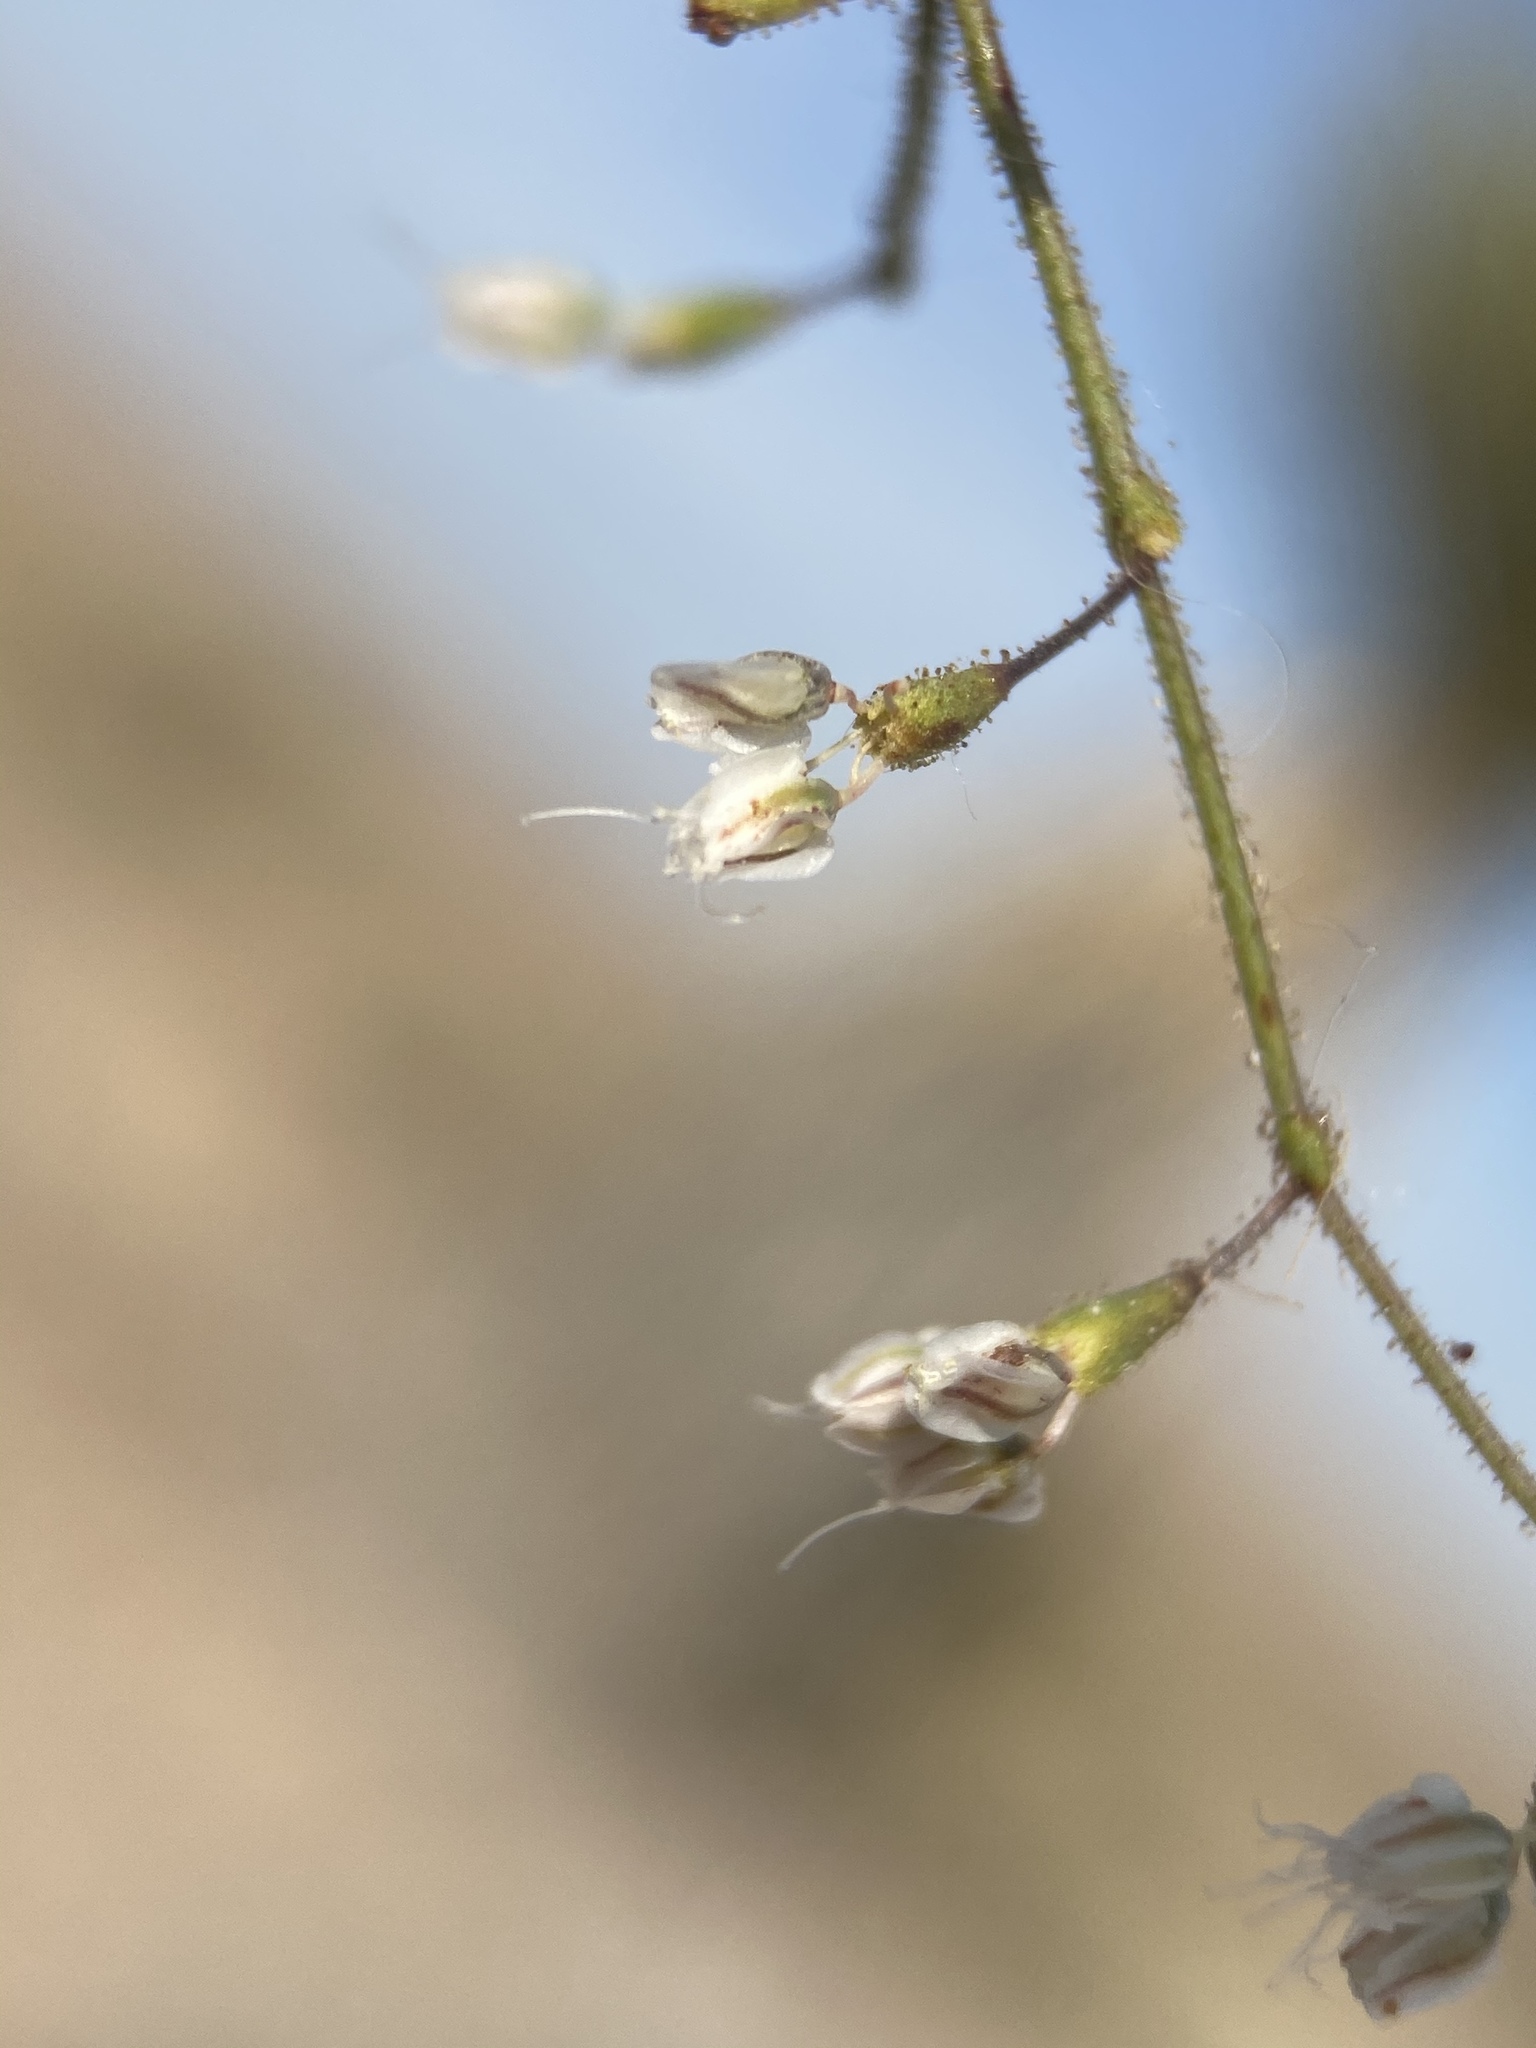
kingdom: Plantae
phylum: Tracheophyta
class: Magnoliopsida
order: Caryophyllales
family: Polygonaceae
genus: Eriogonum
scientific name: Eriogonum brachypodum
